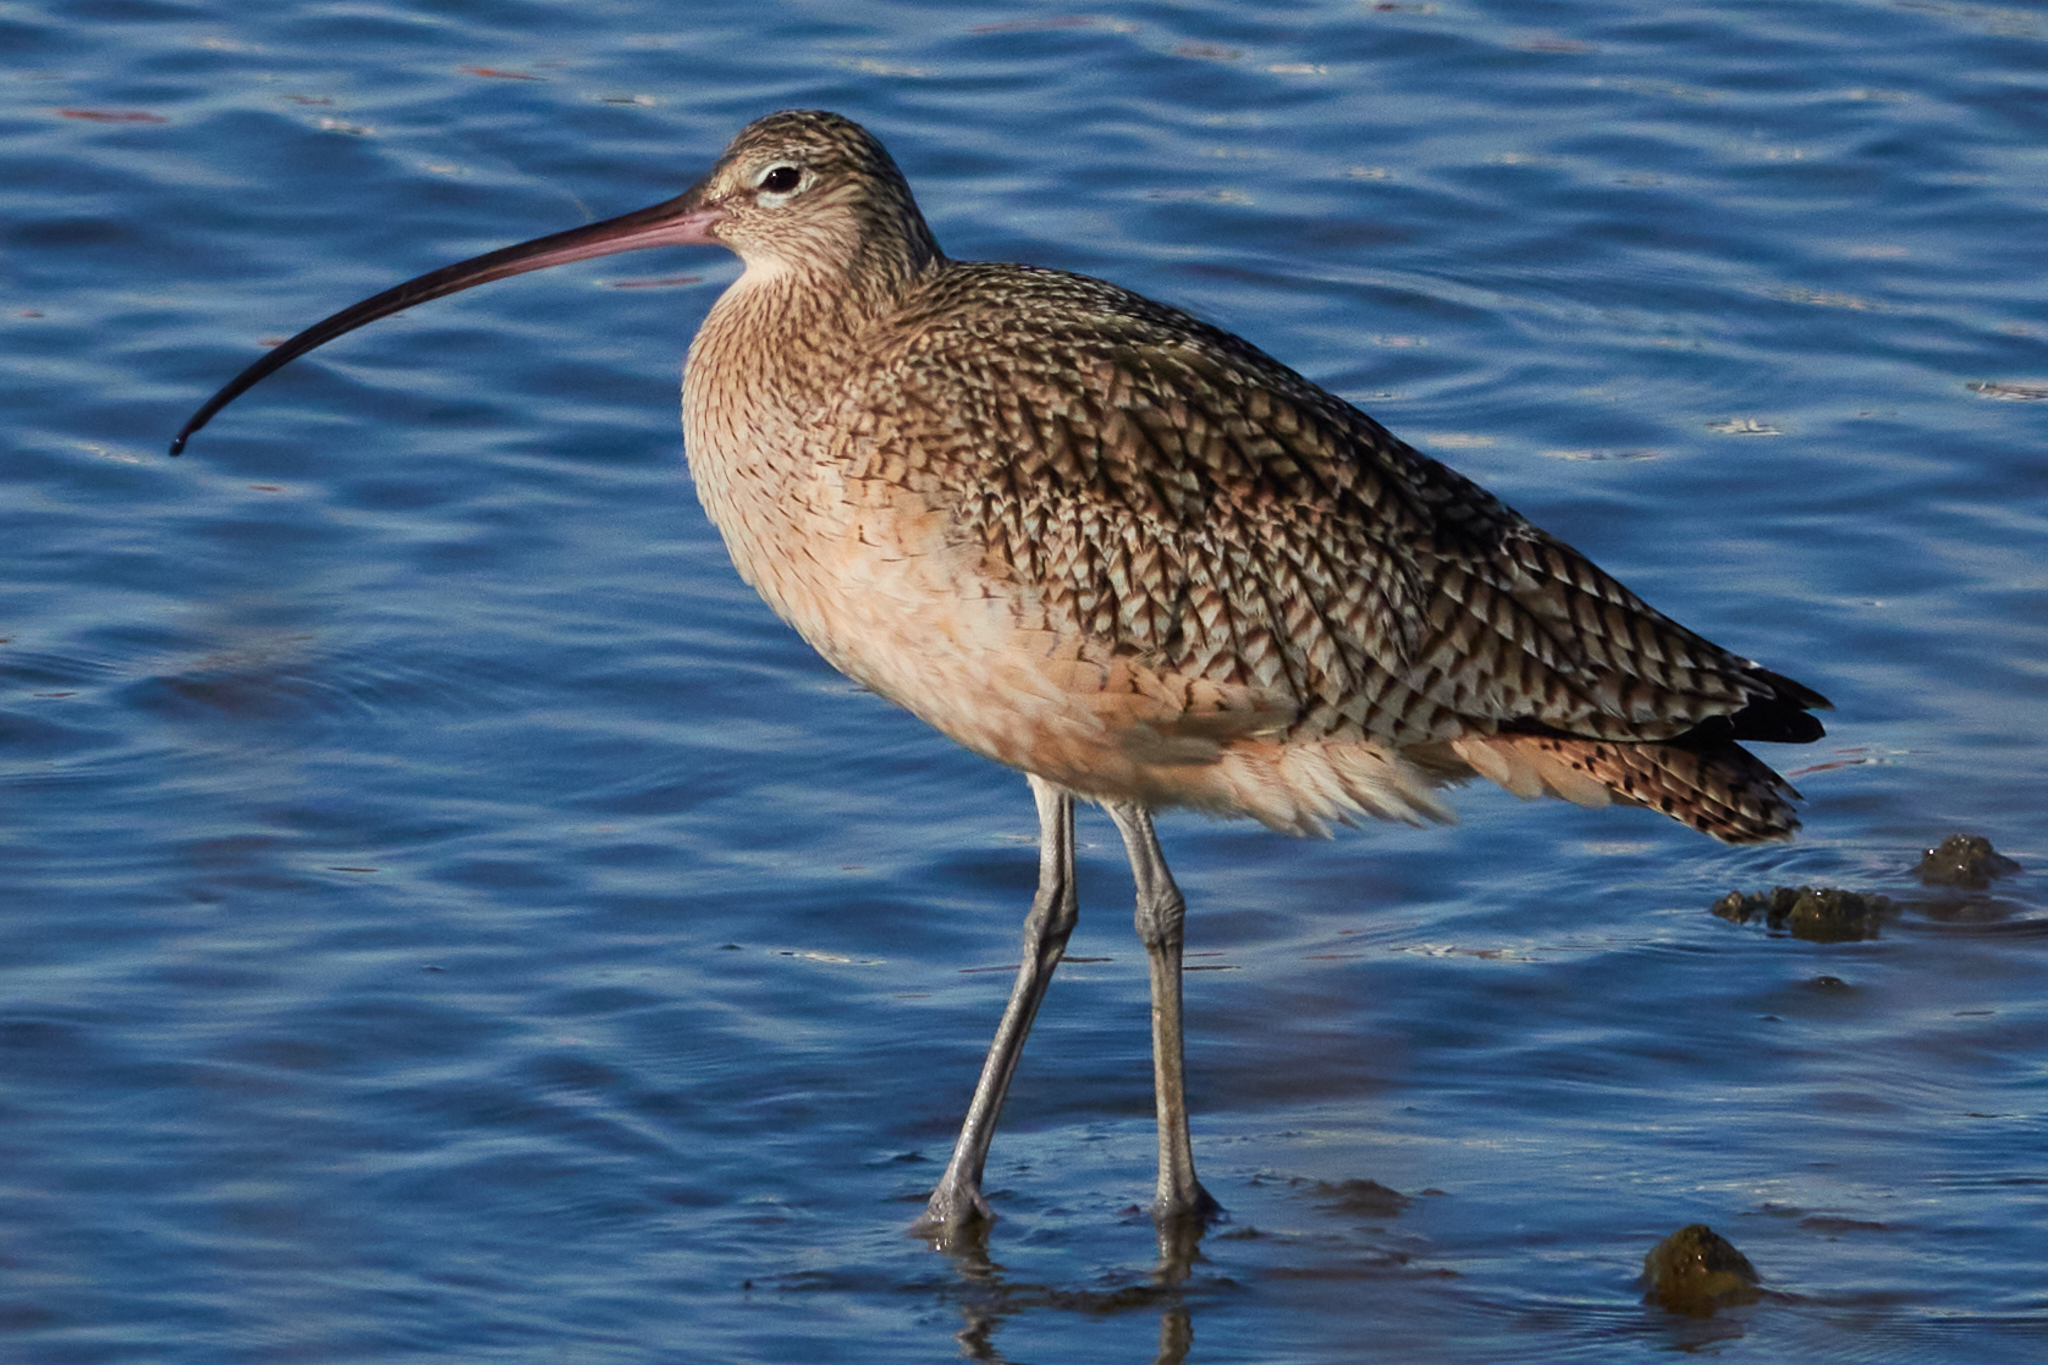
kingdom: Animalia
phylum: Chordata
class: Aves
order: Charadriiformes
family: Scolopacidae
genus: Numenius
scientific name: Numenius americanus
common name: Long-billed curlew
